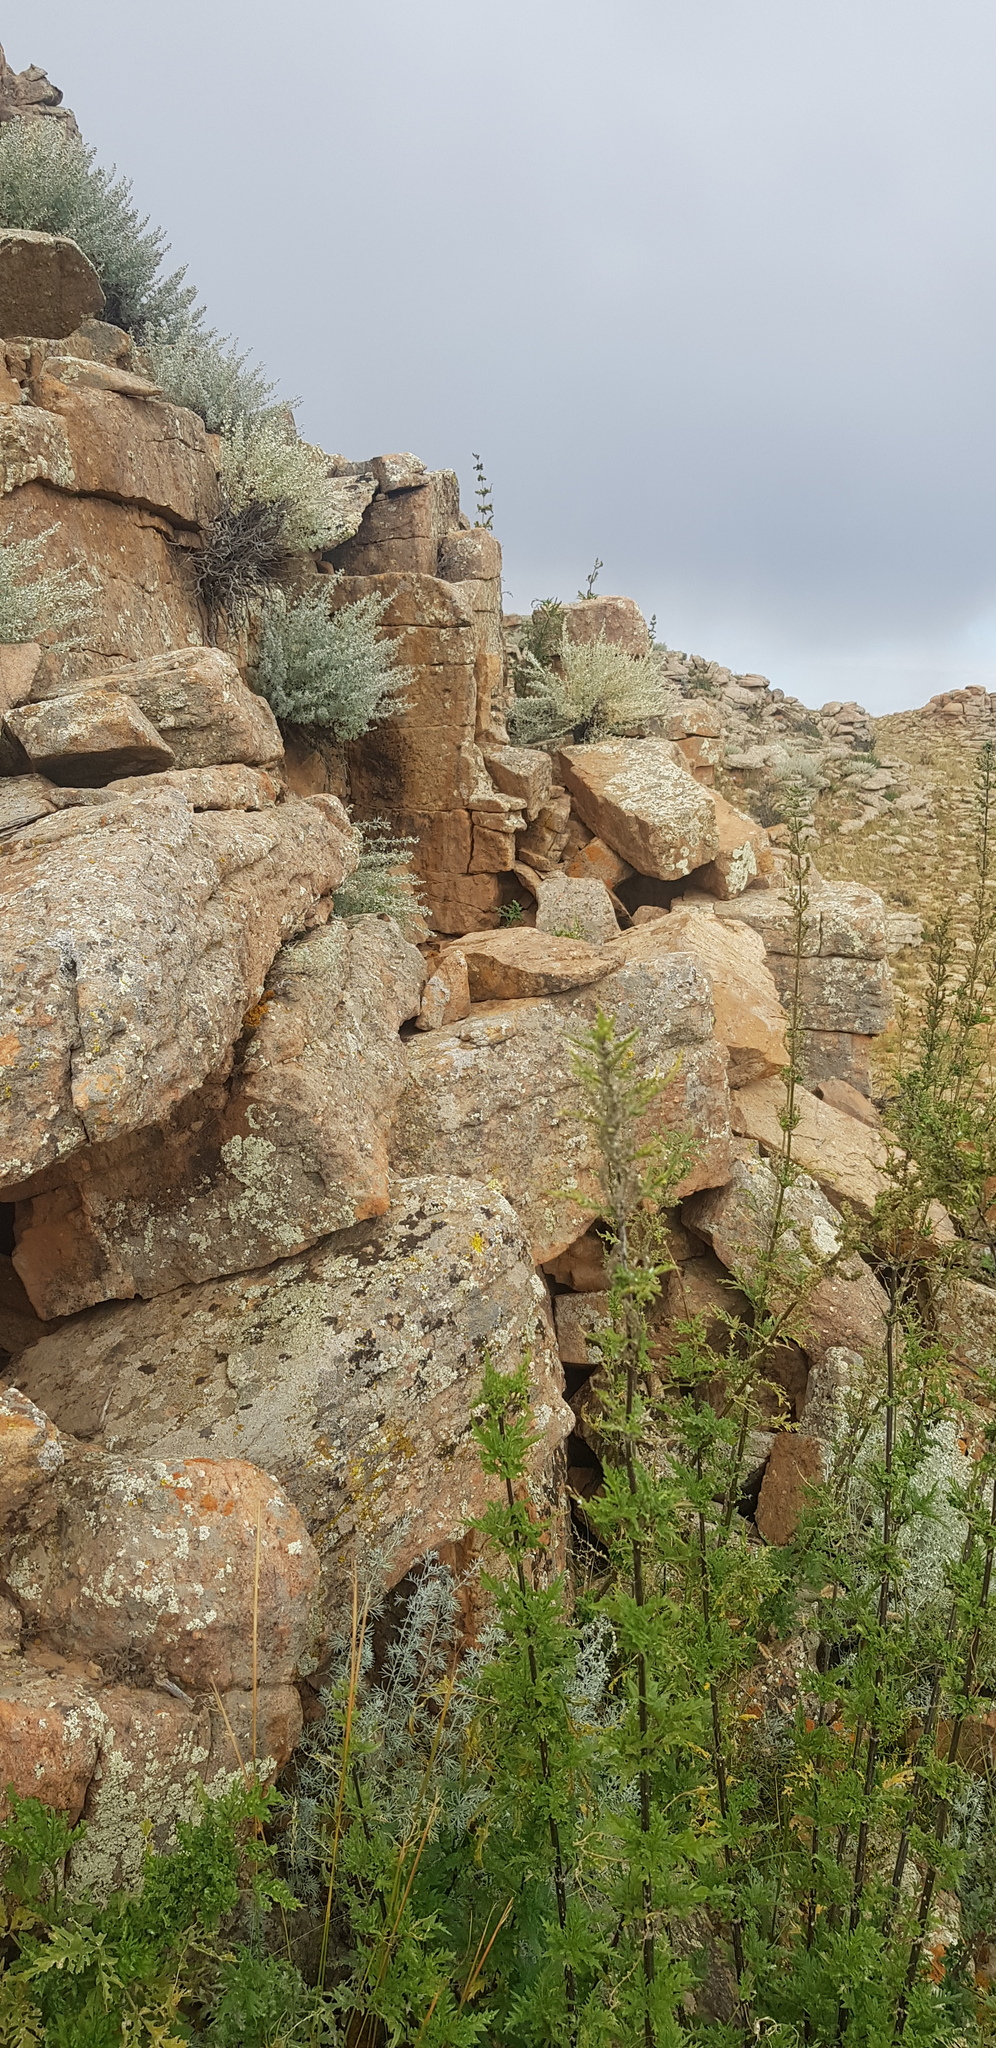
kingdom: Plantae
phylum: Tracheophyta
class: Magnoliopsida
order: Rosales
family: Urticaceae
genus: Urtica
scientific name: Urtica cannabina
